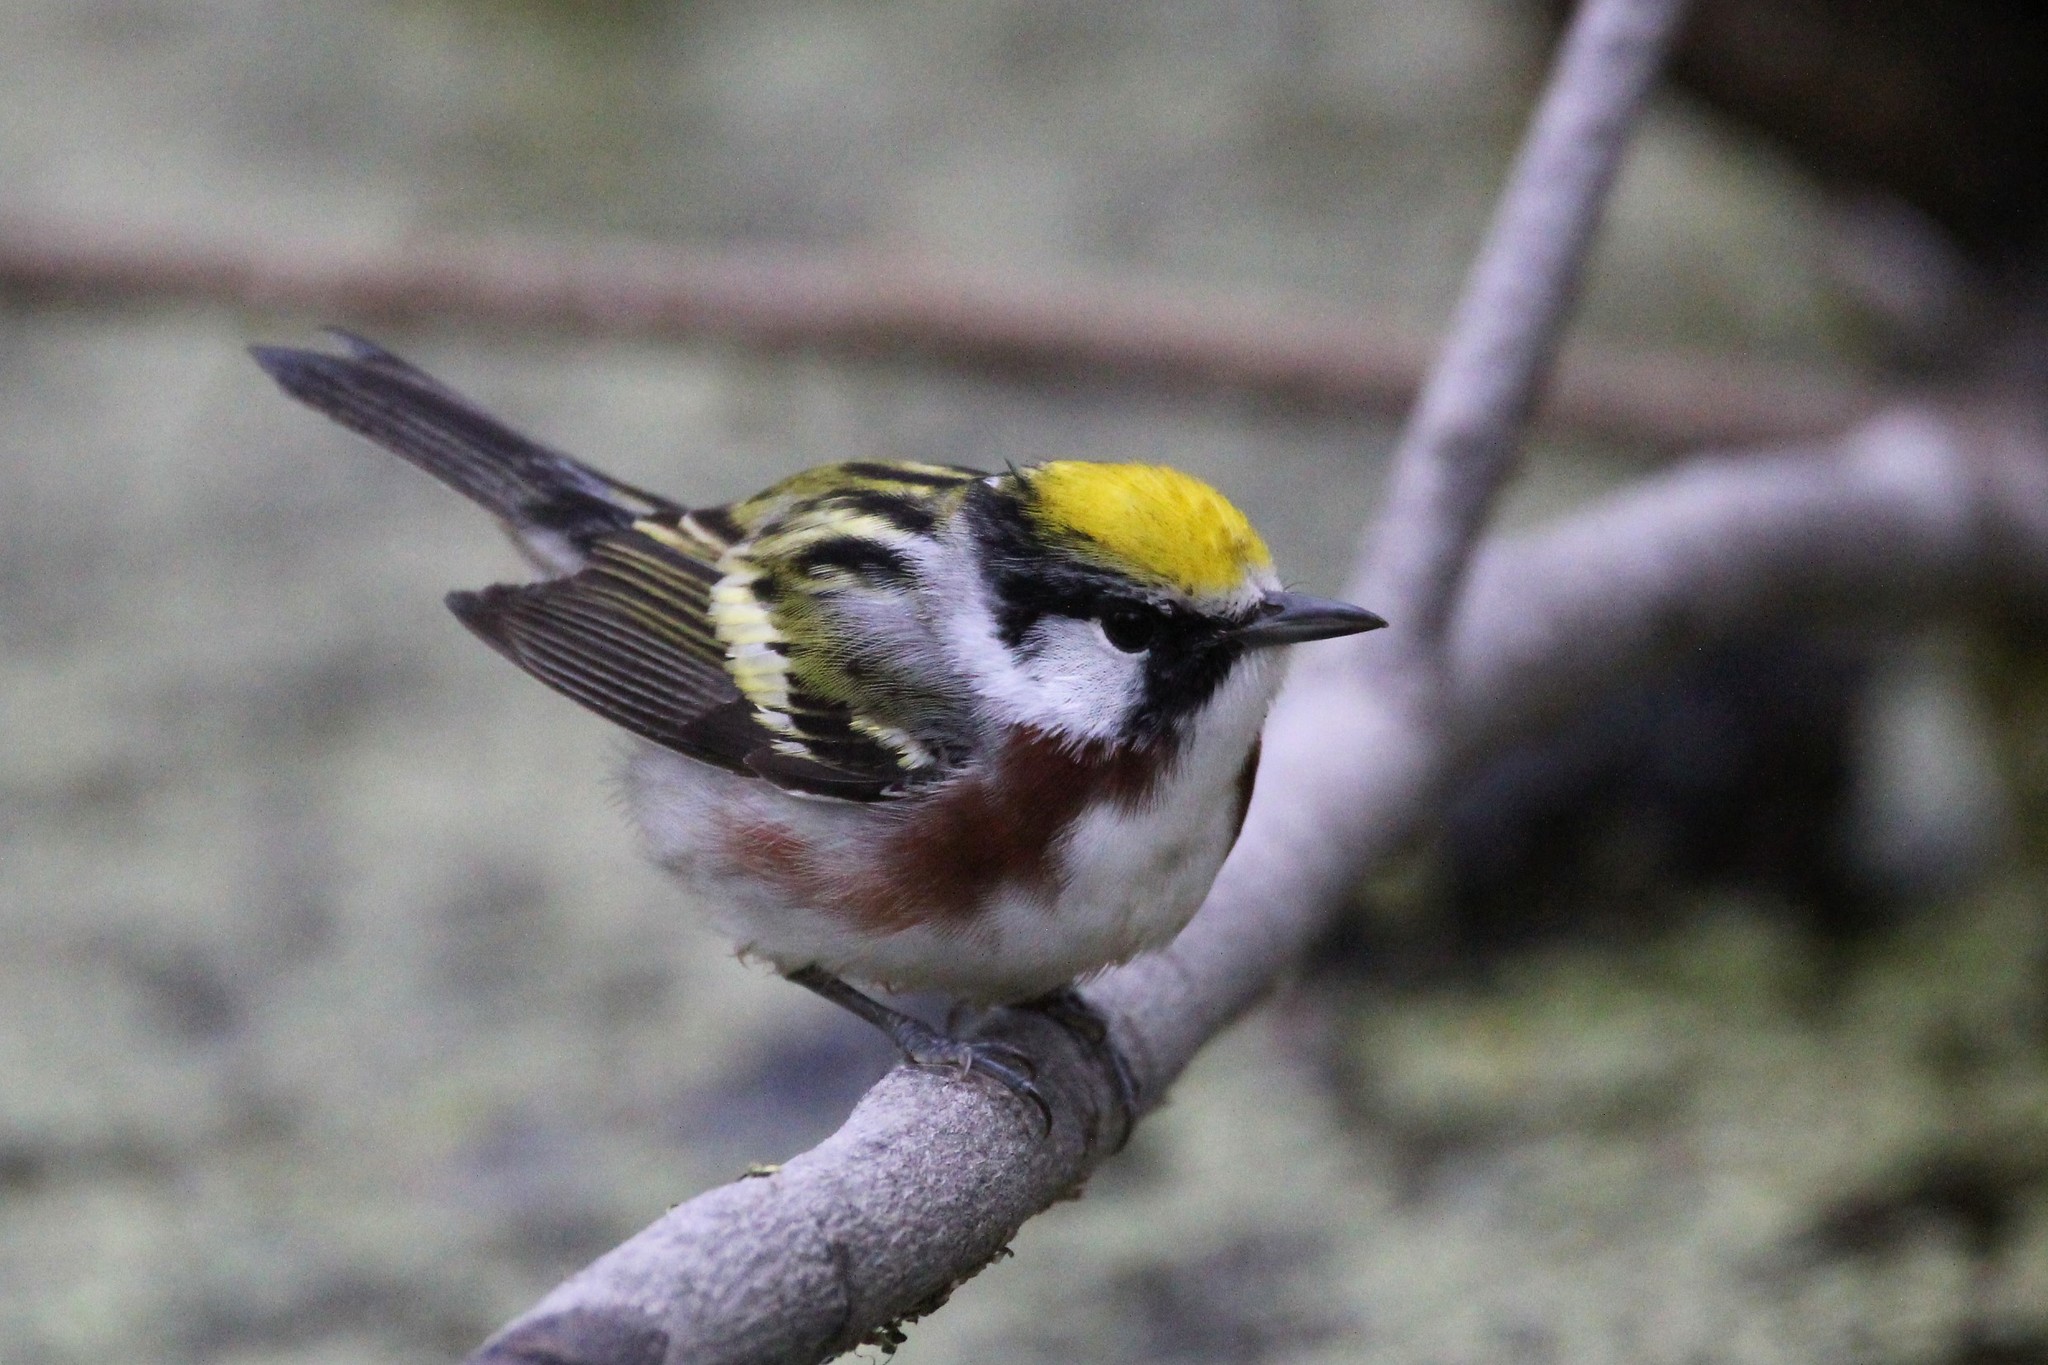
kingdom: Animalia
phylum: Chordata
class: Aves
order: Passeriformes
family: Parulidae
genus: Setophaga
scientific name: Setophaga pensylvanica
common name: Chestnut-sided warbler
